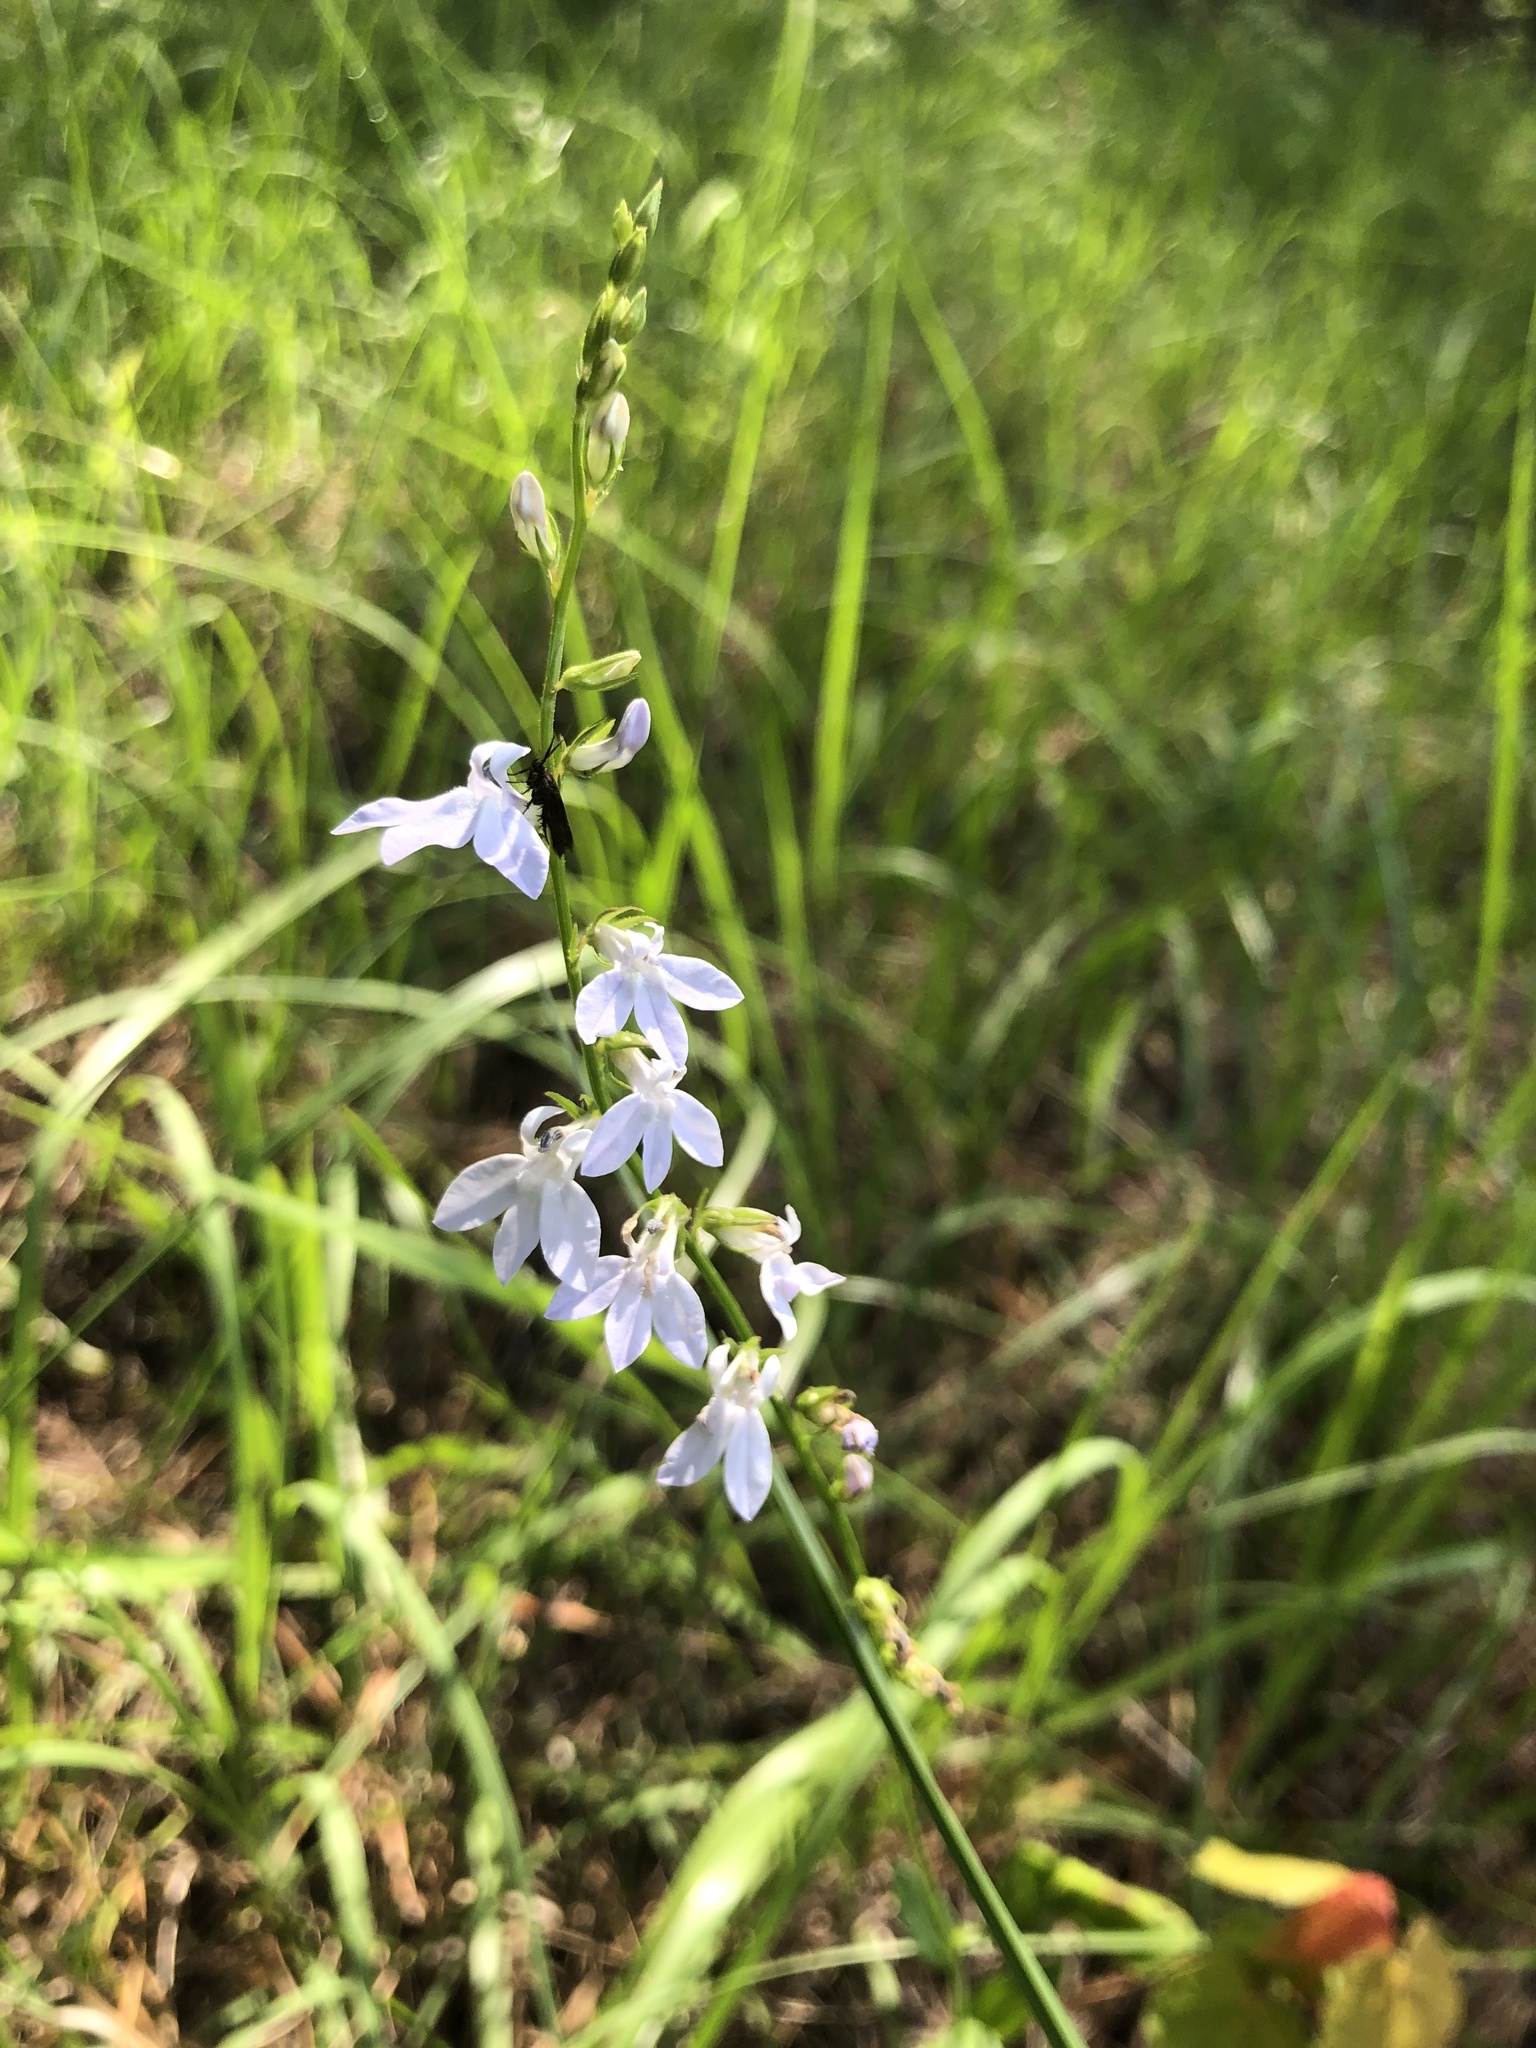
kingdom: Plantae
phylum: Tracheophyta
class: Magnoliopsida
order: Asterales
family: Campanulaceae
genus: Lobelia
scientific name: Lobelia appendiculata
